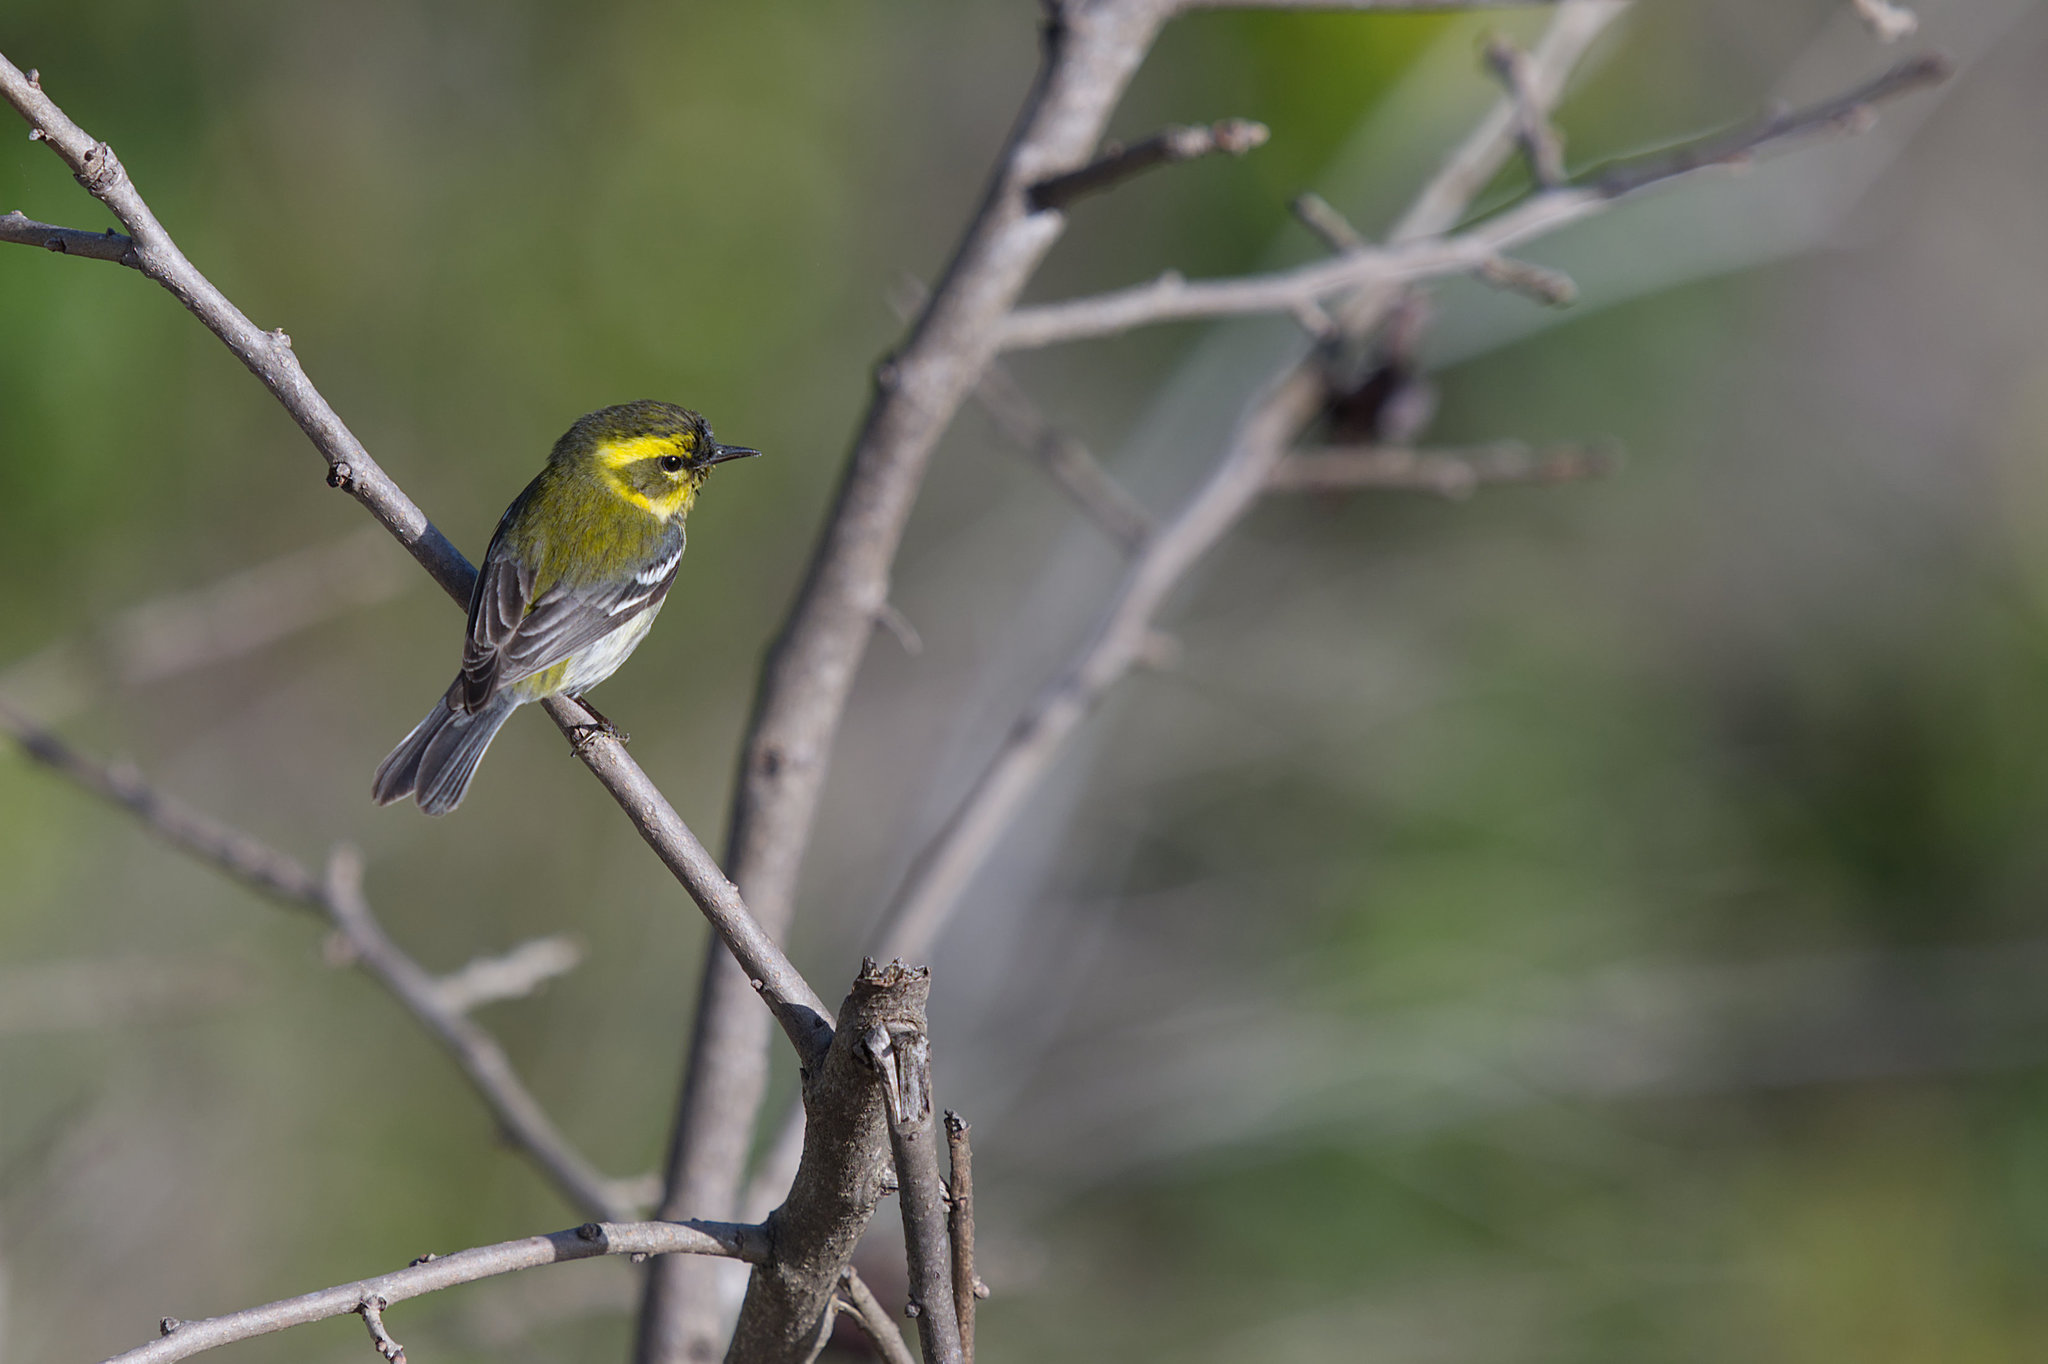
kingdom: Animalia
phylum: Chordata
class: Aves
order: Passeriformes
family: Parulidae
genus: Setophaga
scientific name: Setophaga townsendi
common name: Townsend's warbler
